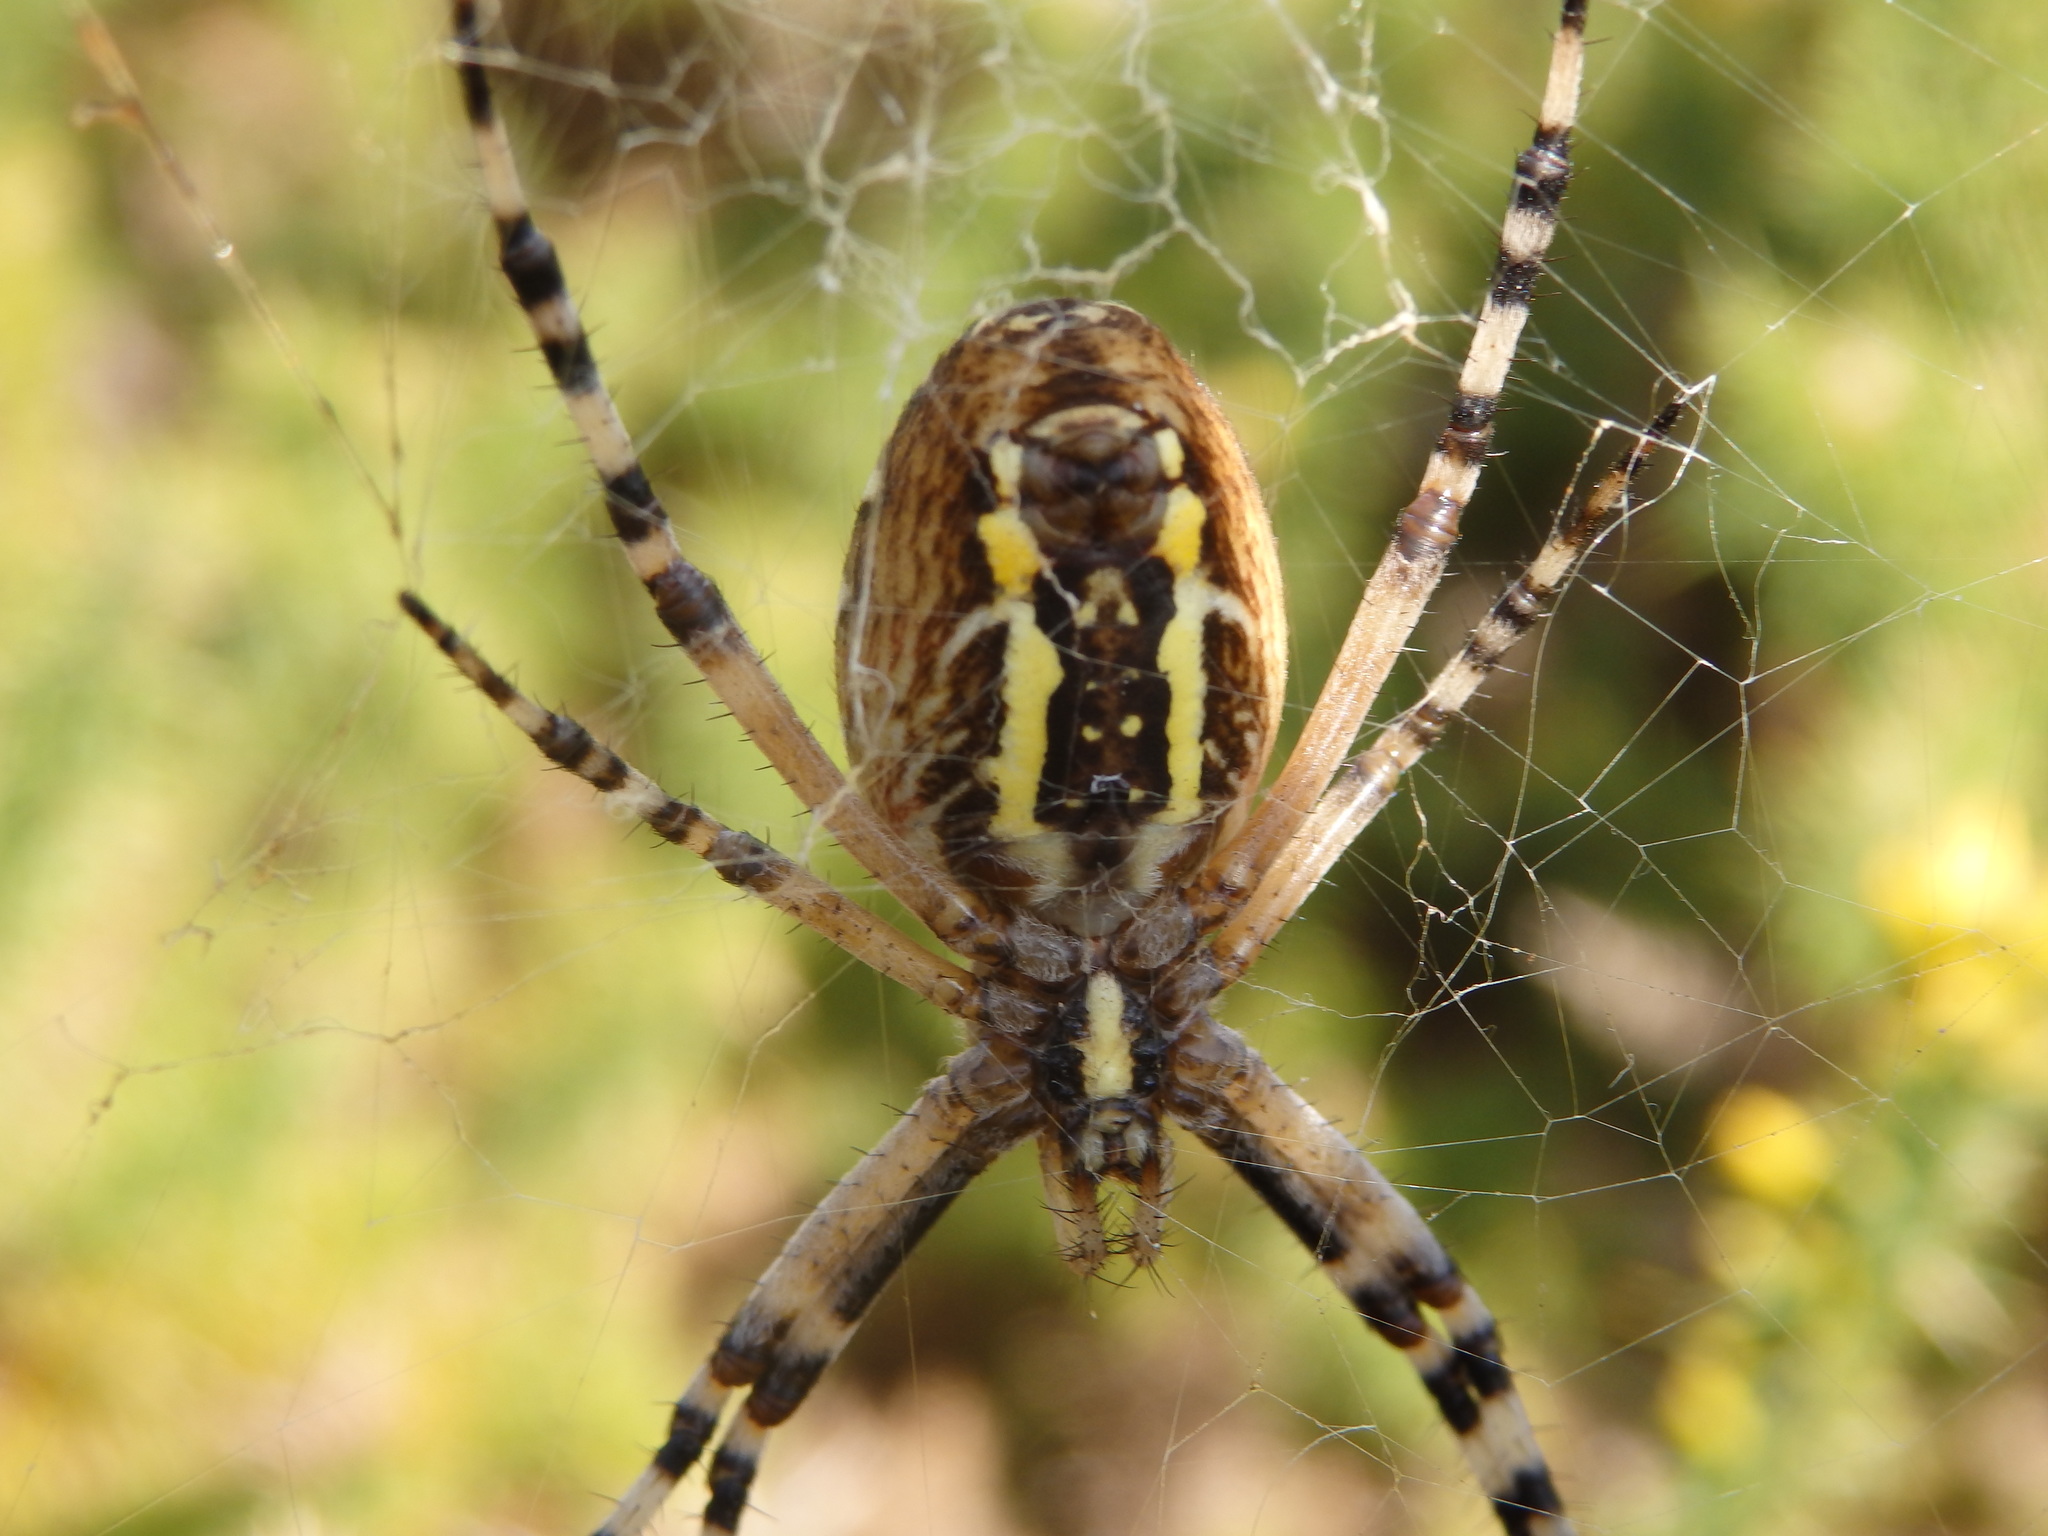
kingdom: Animalia
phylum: Arthropoda
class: Arachnida
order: Araneae
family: Araneidae
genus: Argiope
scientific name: Argiope bruennichi
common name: Wasp spider
